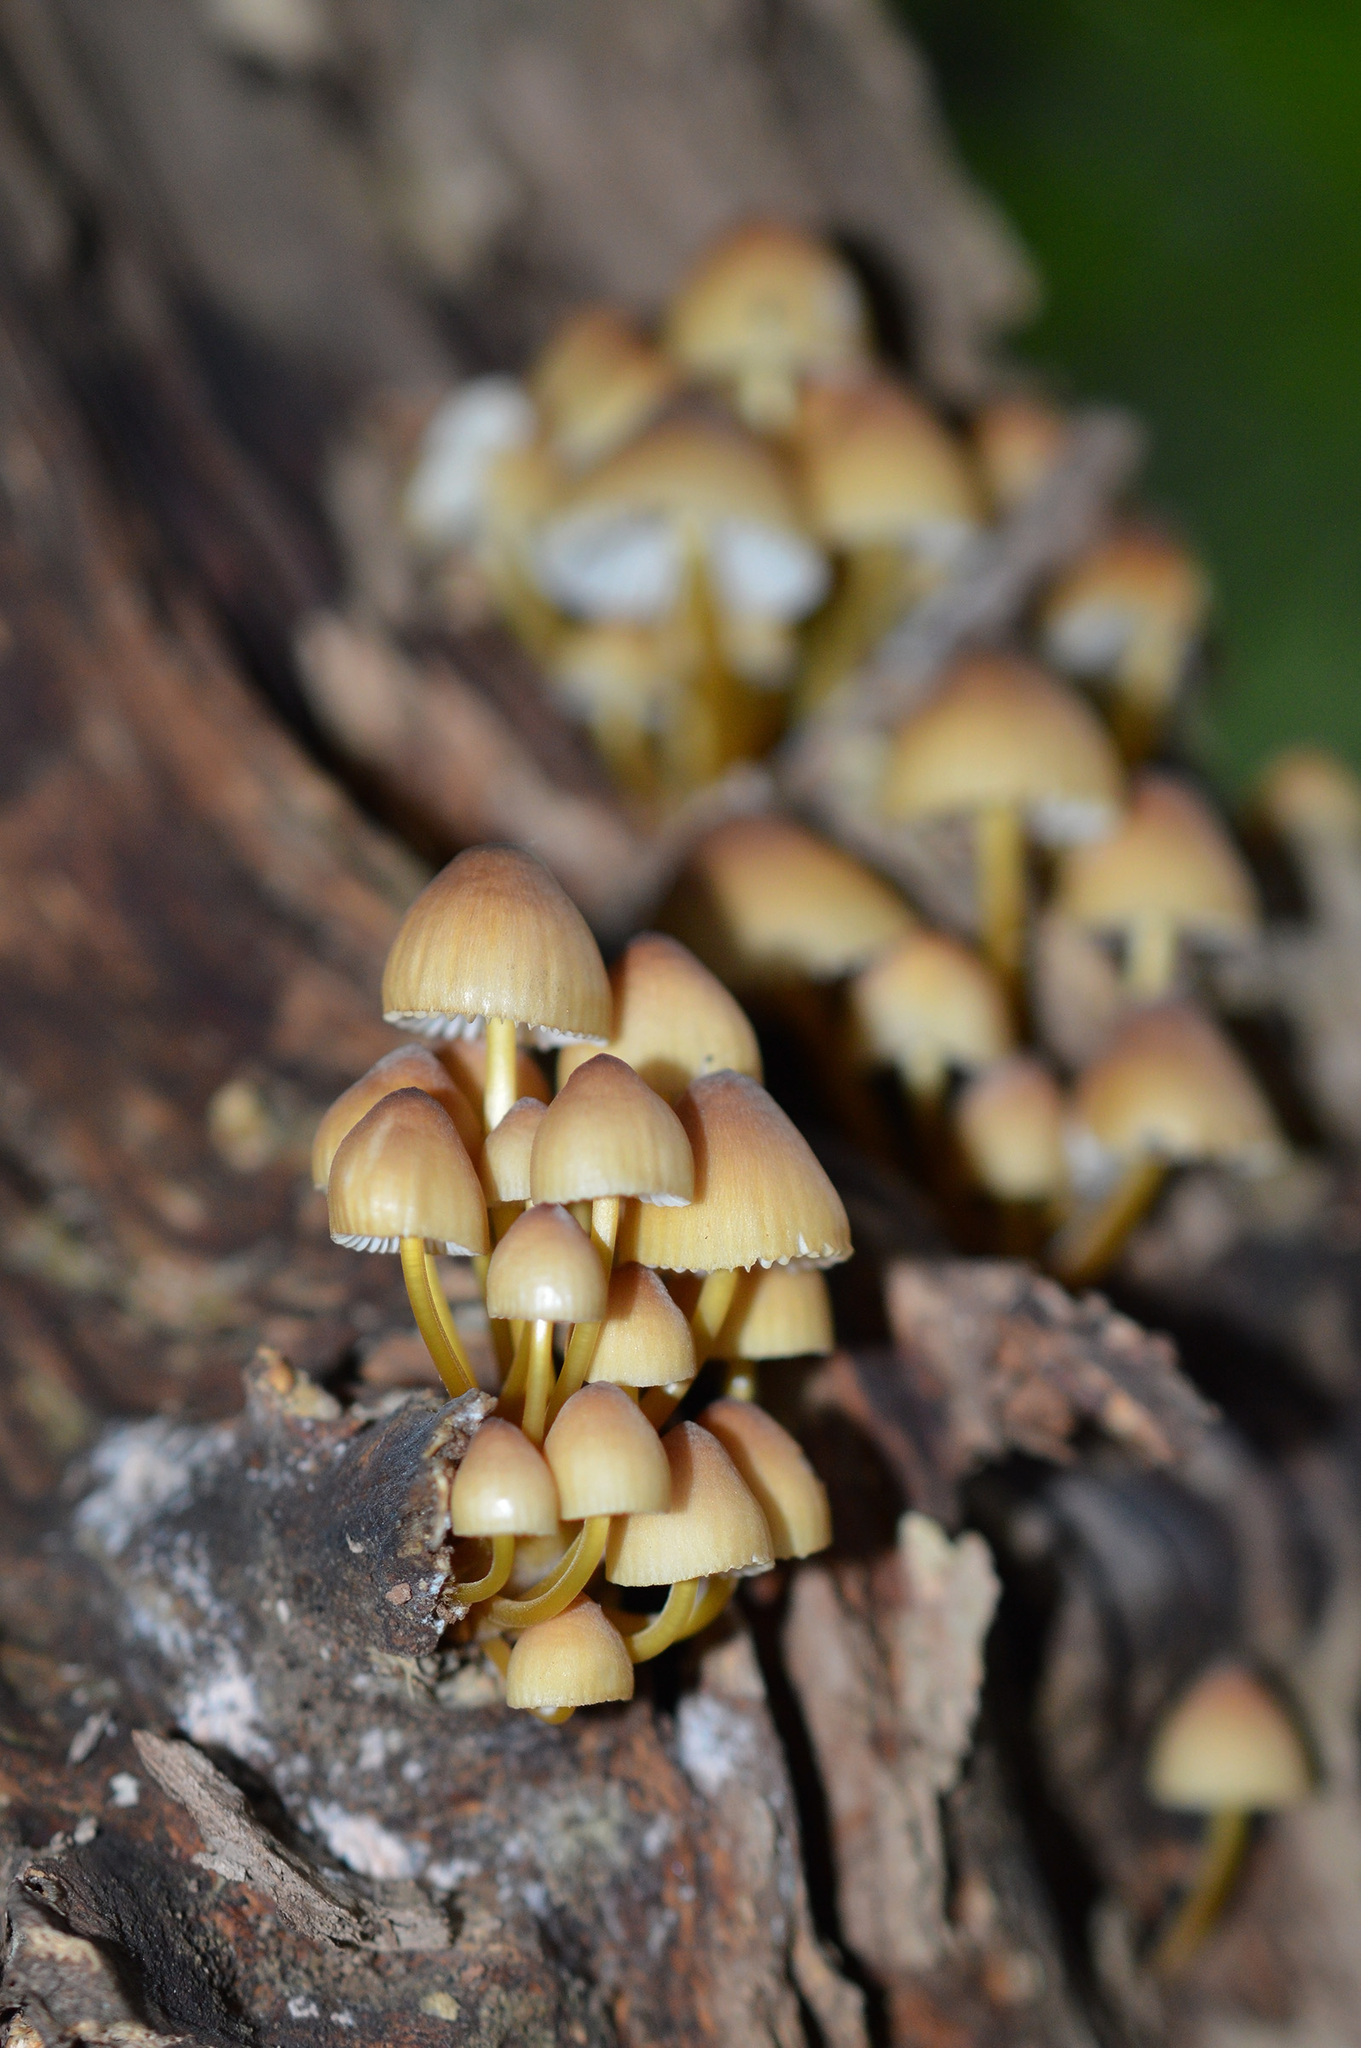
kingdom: Fungi
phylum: Basidiomycota
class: Agaricomycetes
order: Agaricales
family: Mycenaceae
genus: Mycena
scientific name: Mycena renati
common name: Beautiful bonnet
